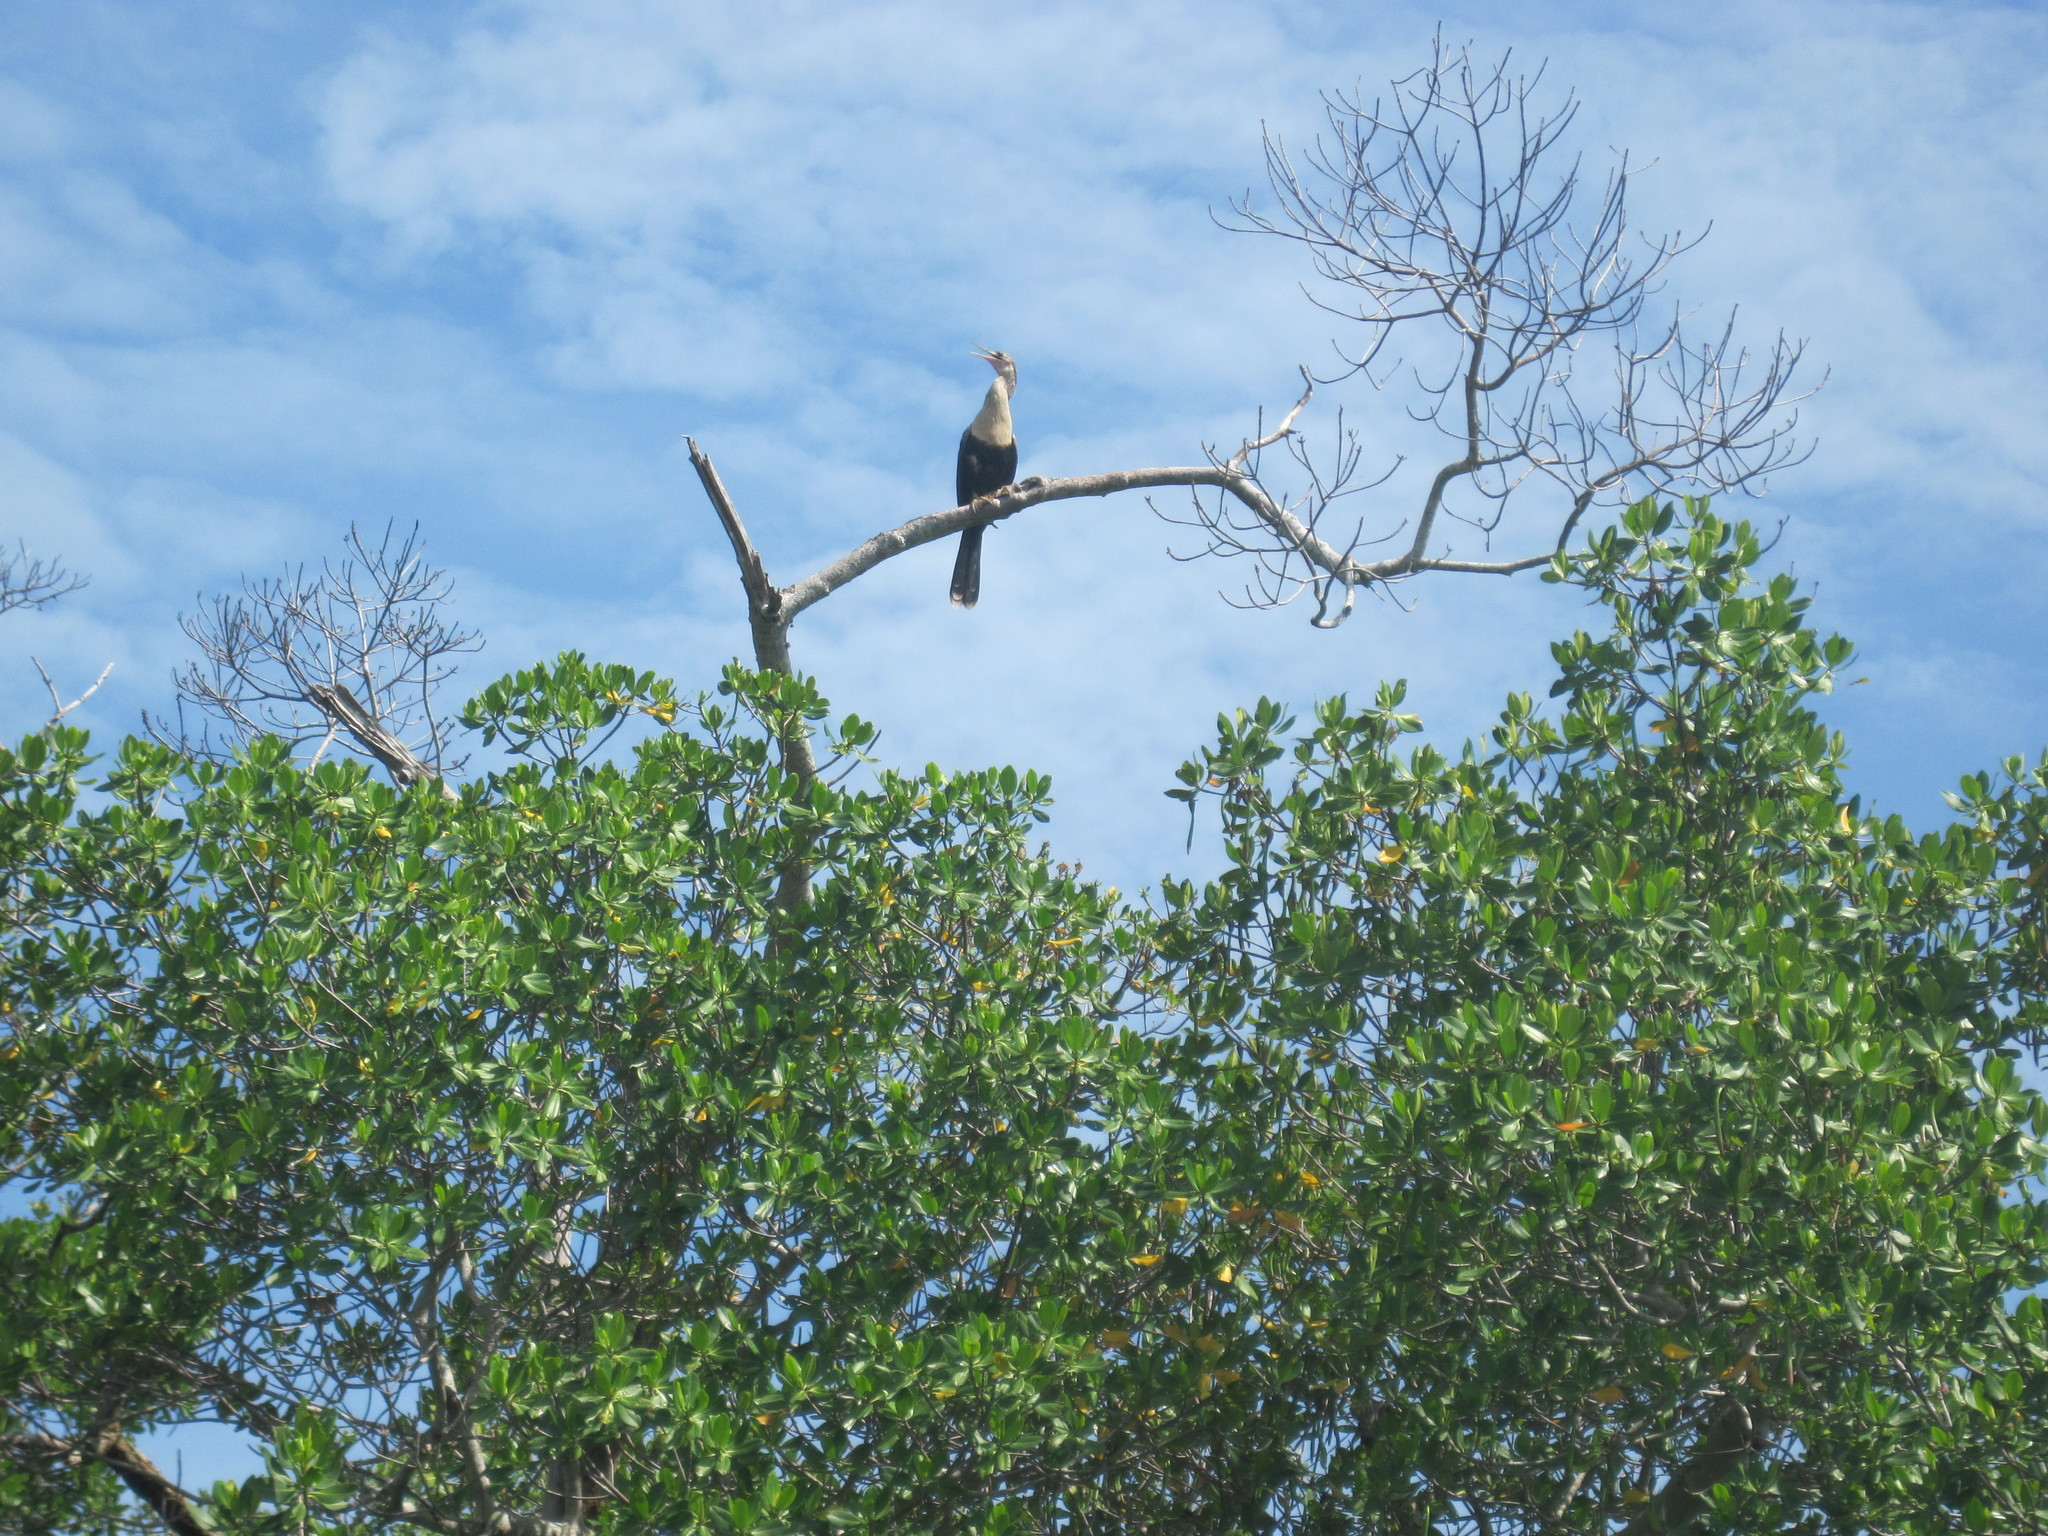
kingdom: Animalia
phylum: Chordata
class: Aves
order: Suliformes
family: Anhingidae
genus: Anhinga
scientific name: Anhinga anhinga
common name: Anhinga
